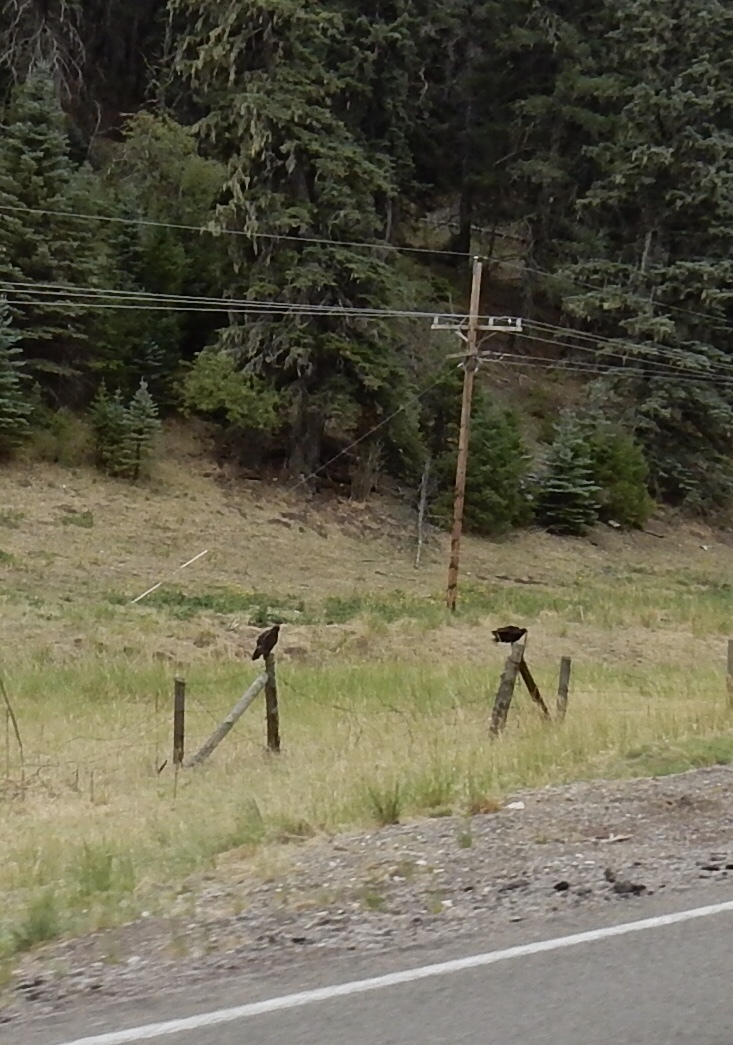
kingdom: Animalia
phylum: Chordata
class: Aves
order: Accipitriformes
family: Cathartidae
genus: Cathartes
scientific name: Cathartes aura
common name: Turkey vulture
